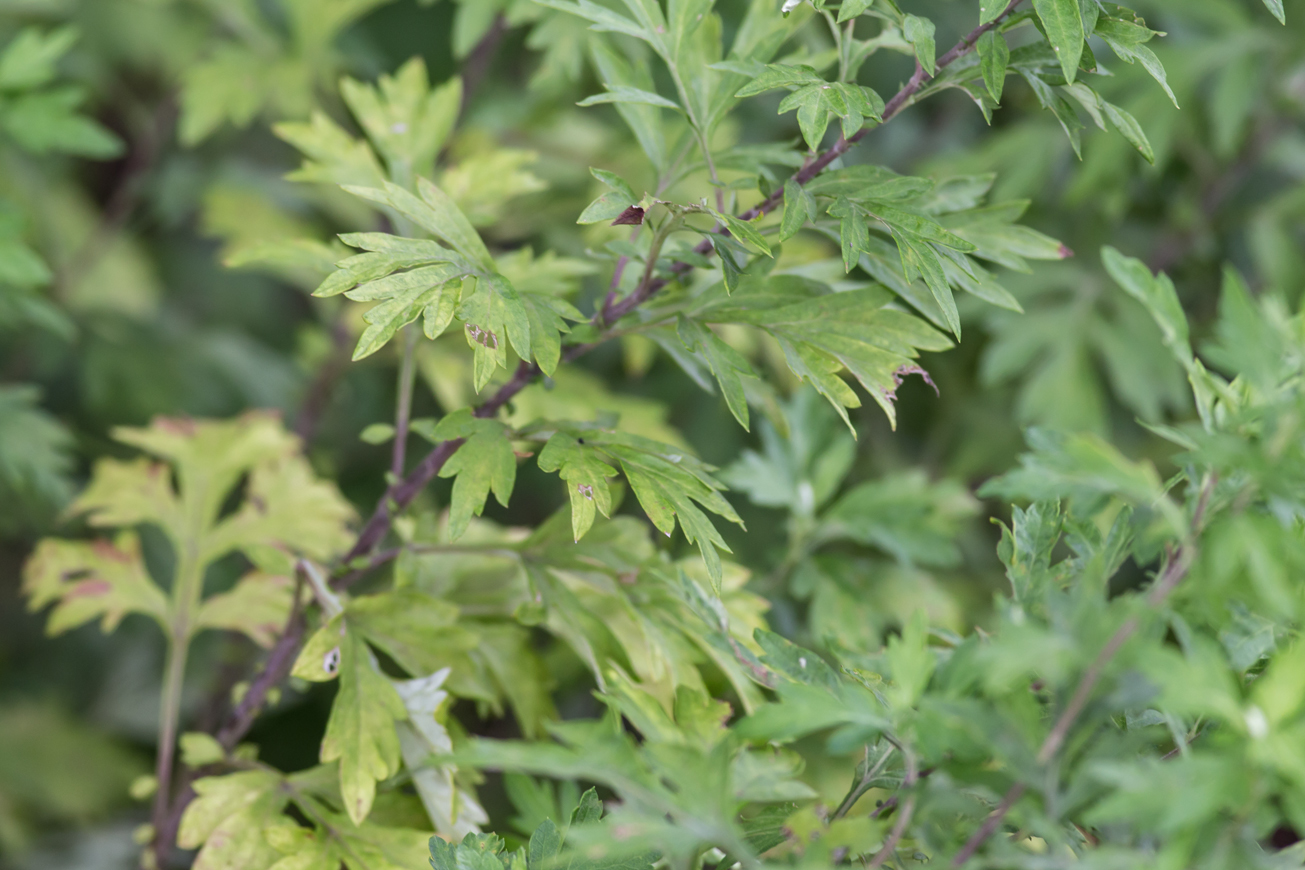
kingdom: Plantae
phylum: Tracheophyta
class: Magnoliopsida
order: Asterales
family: Asteraceae
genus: Artemisia
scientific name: Artemisia vulgaris
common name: Mugwort
